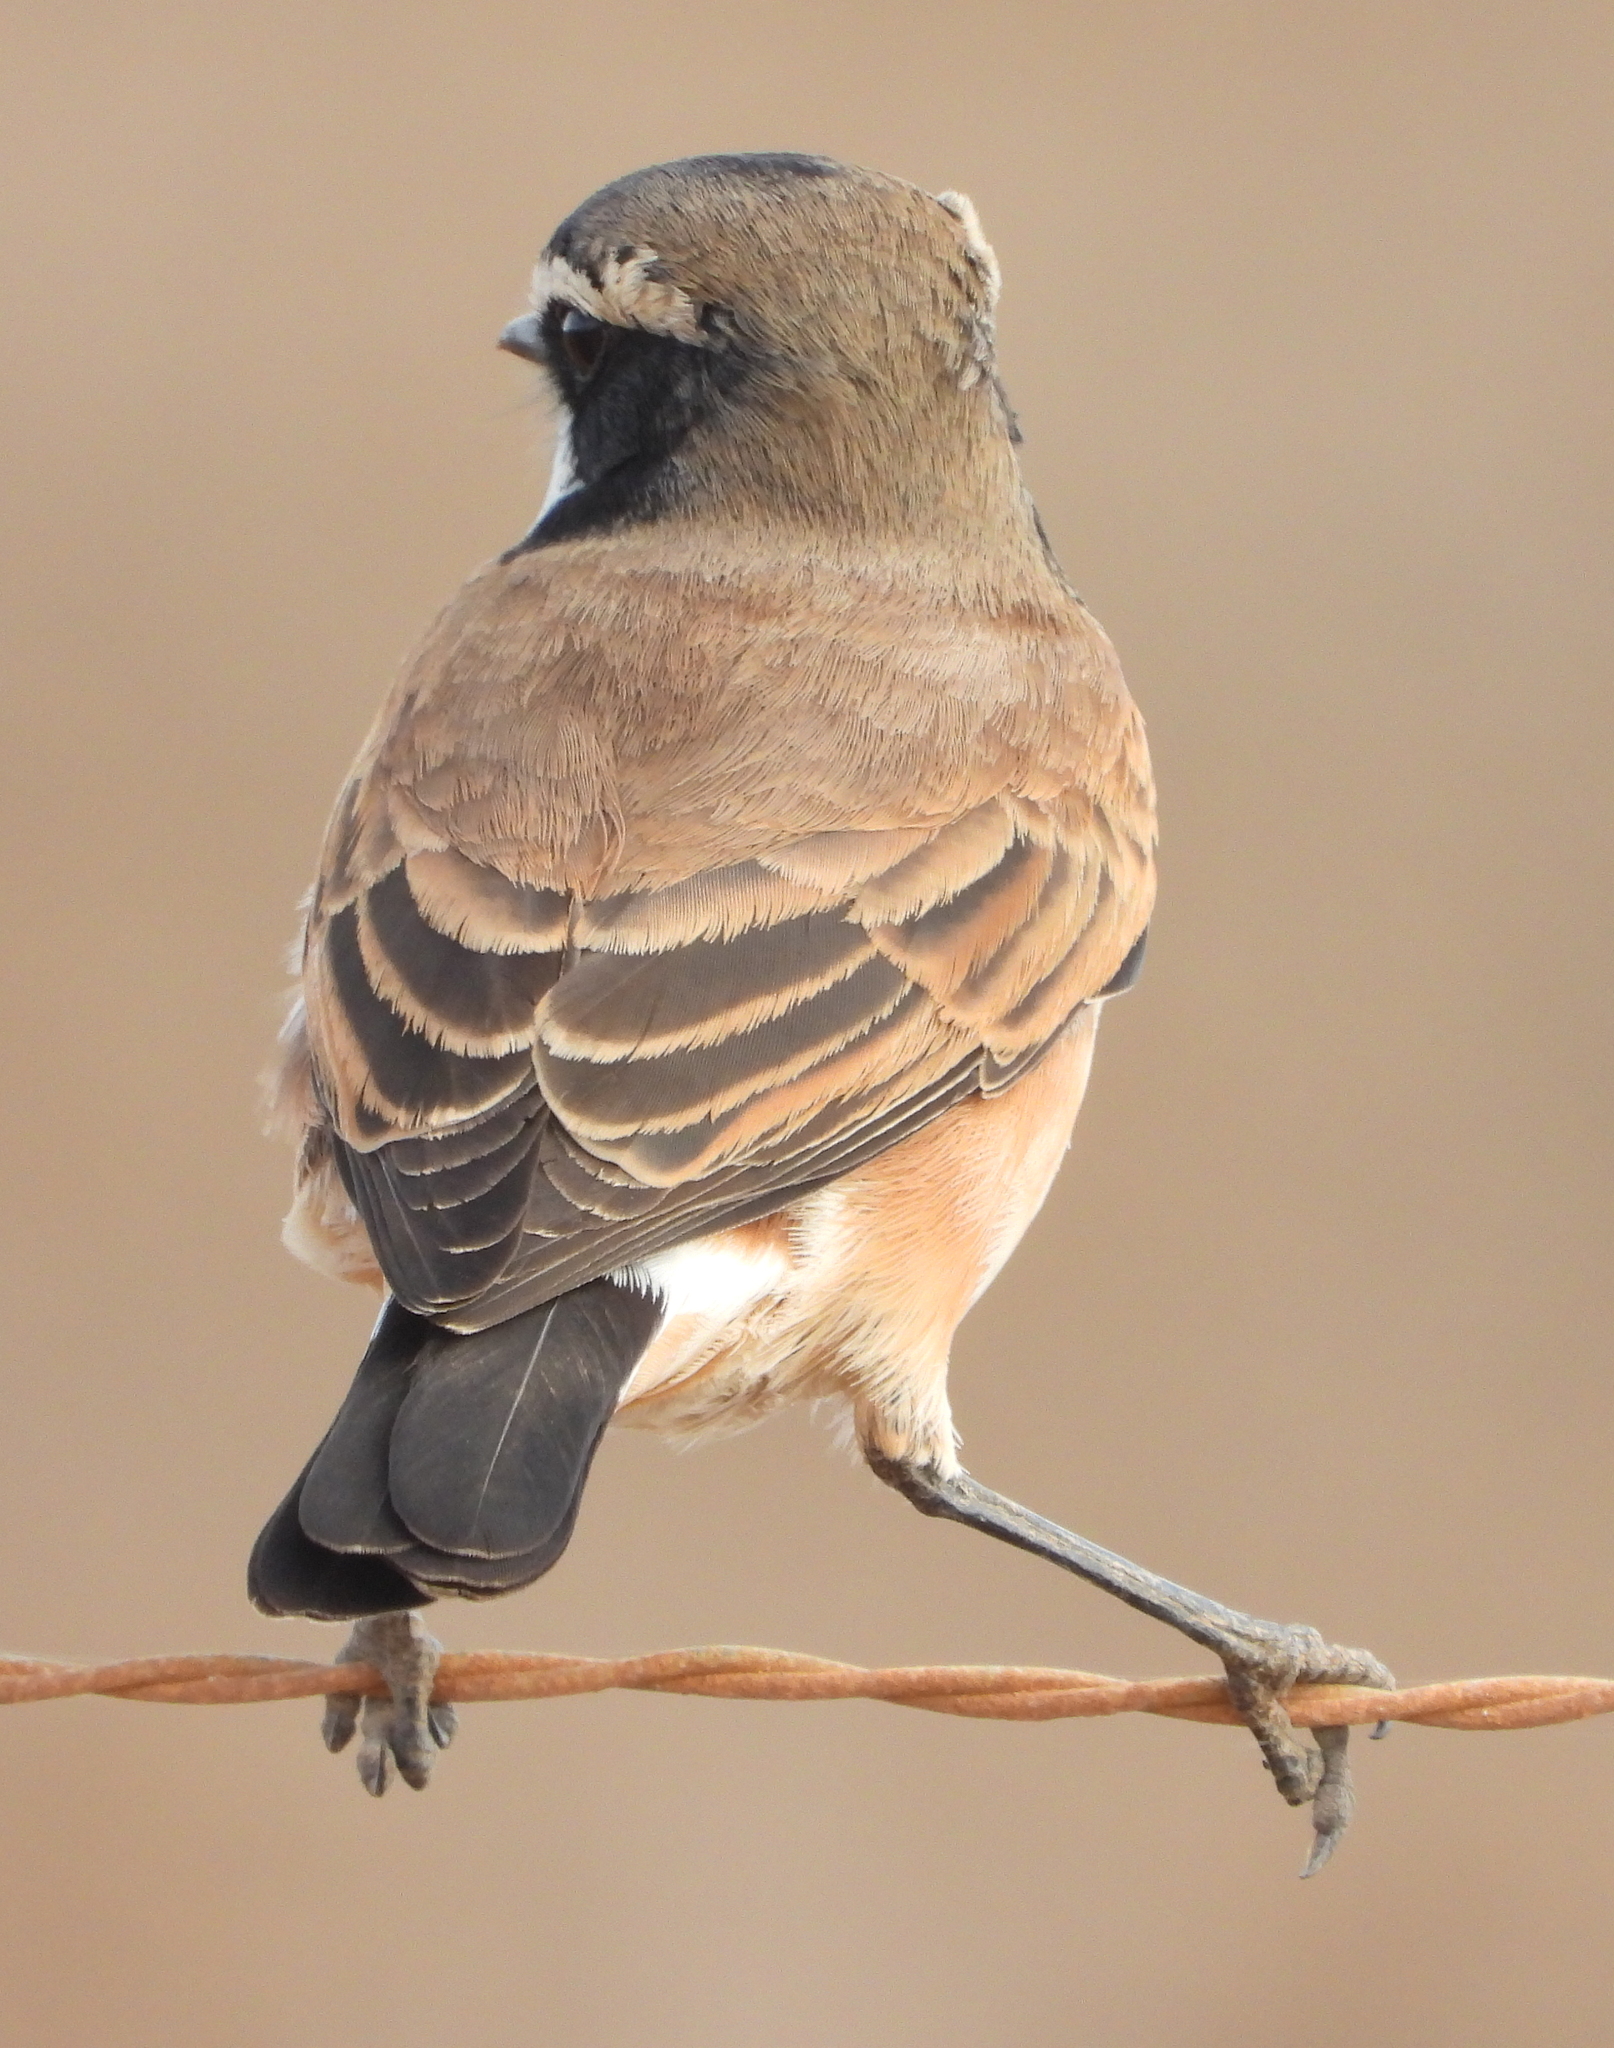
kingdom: Animalia
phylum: Chordata
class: Aves
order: Passeriformes
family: Muscicapidae
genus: Oenanthe
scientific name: Oenanthe pileata
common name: Capped wheatear
